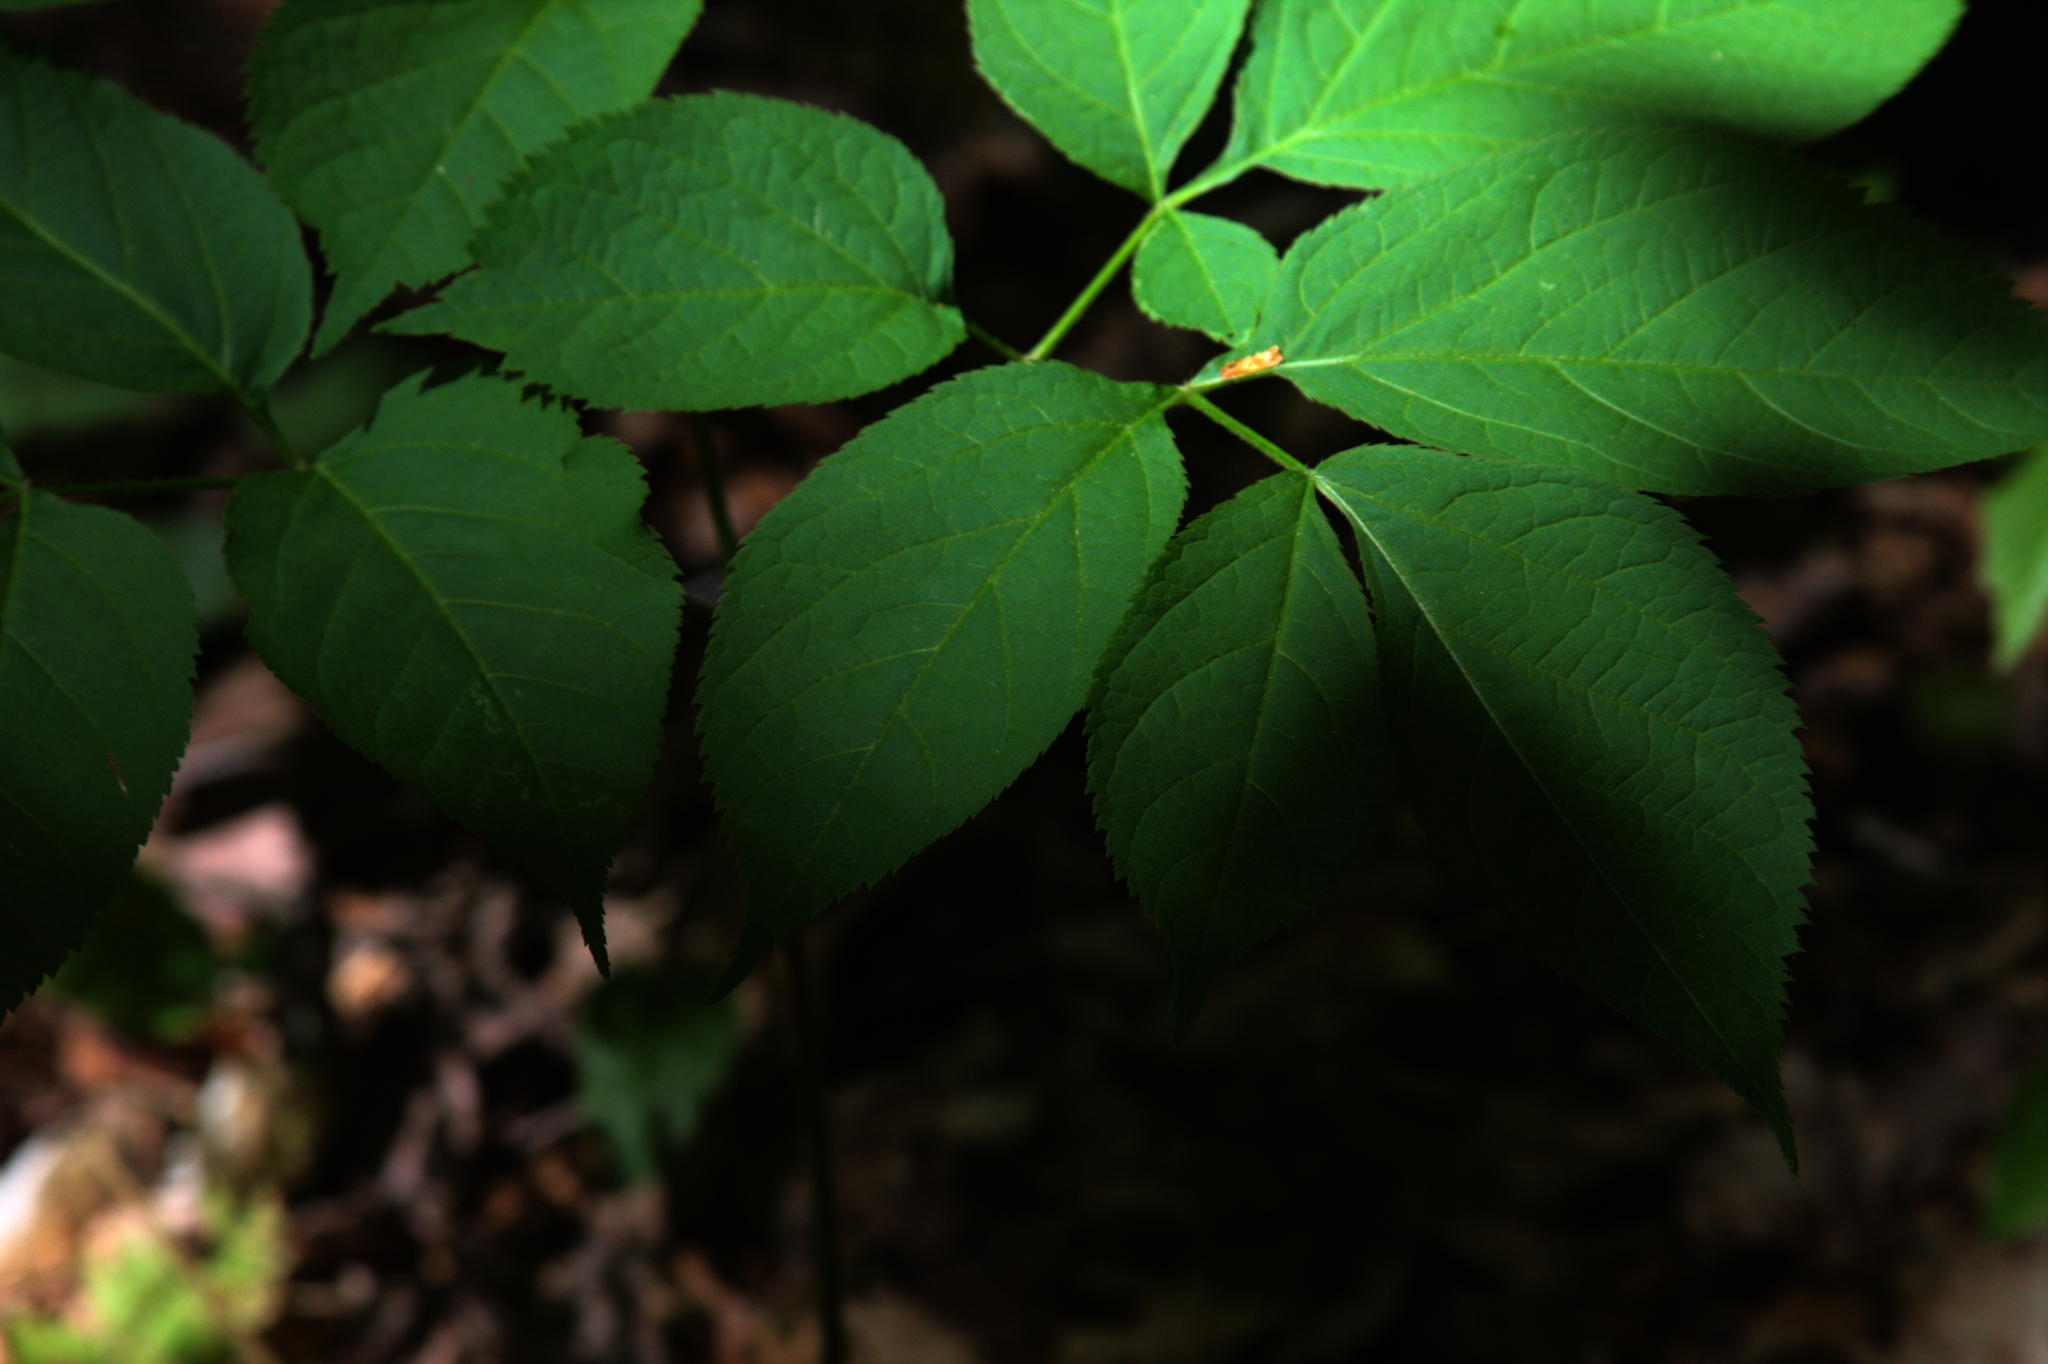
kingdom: Plantae
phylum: Tracheophyta
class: Magnoliopsida
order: Apiales
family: Araliaceae
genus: Aralia
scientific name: Aralia nudicaulis
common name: Wild sarsaparilla
